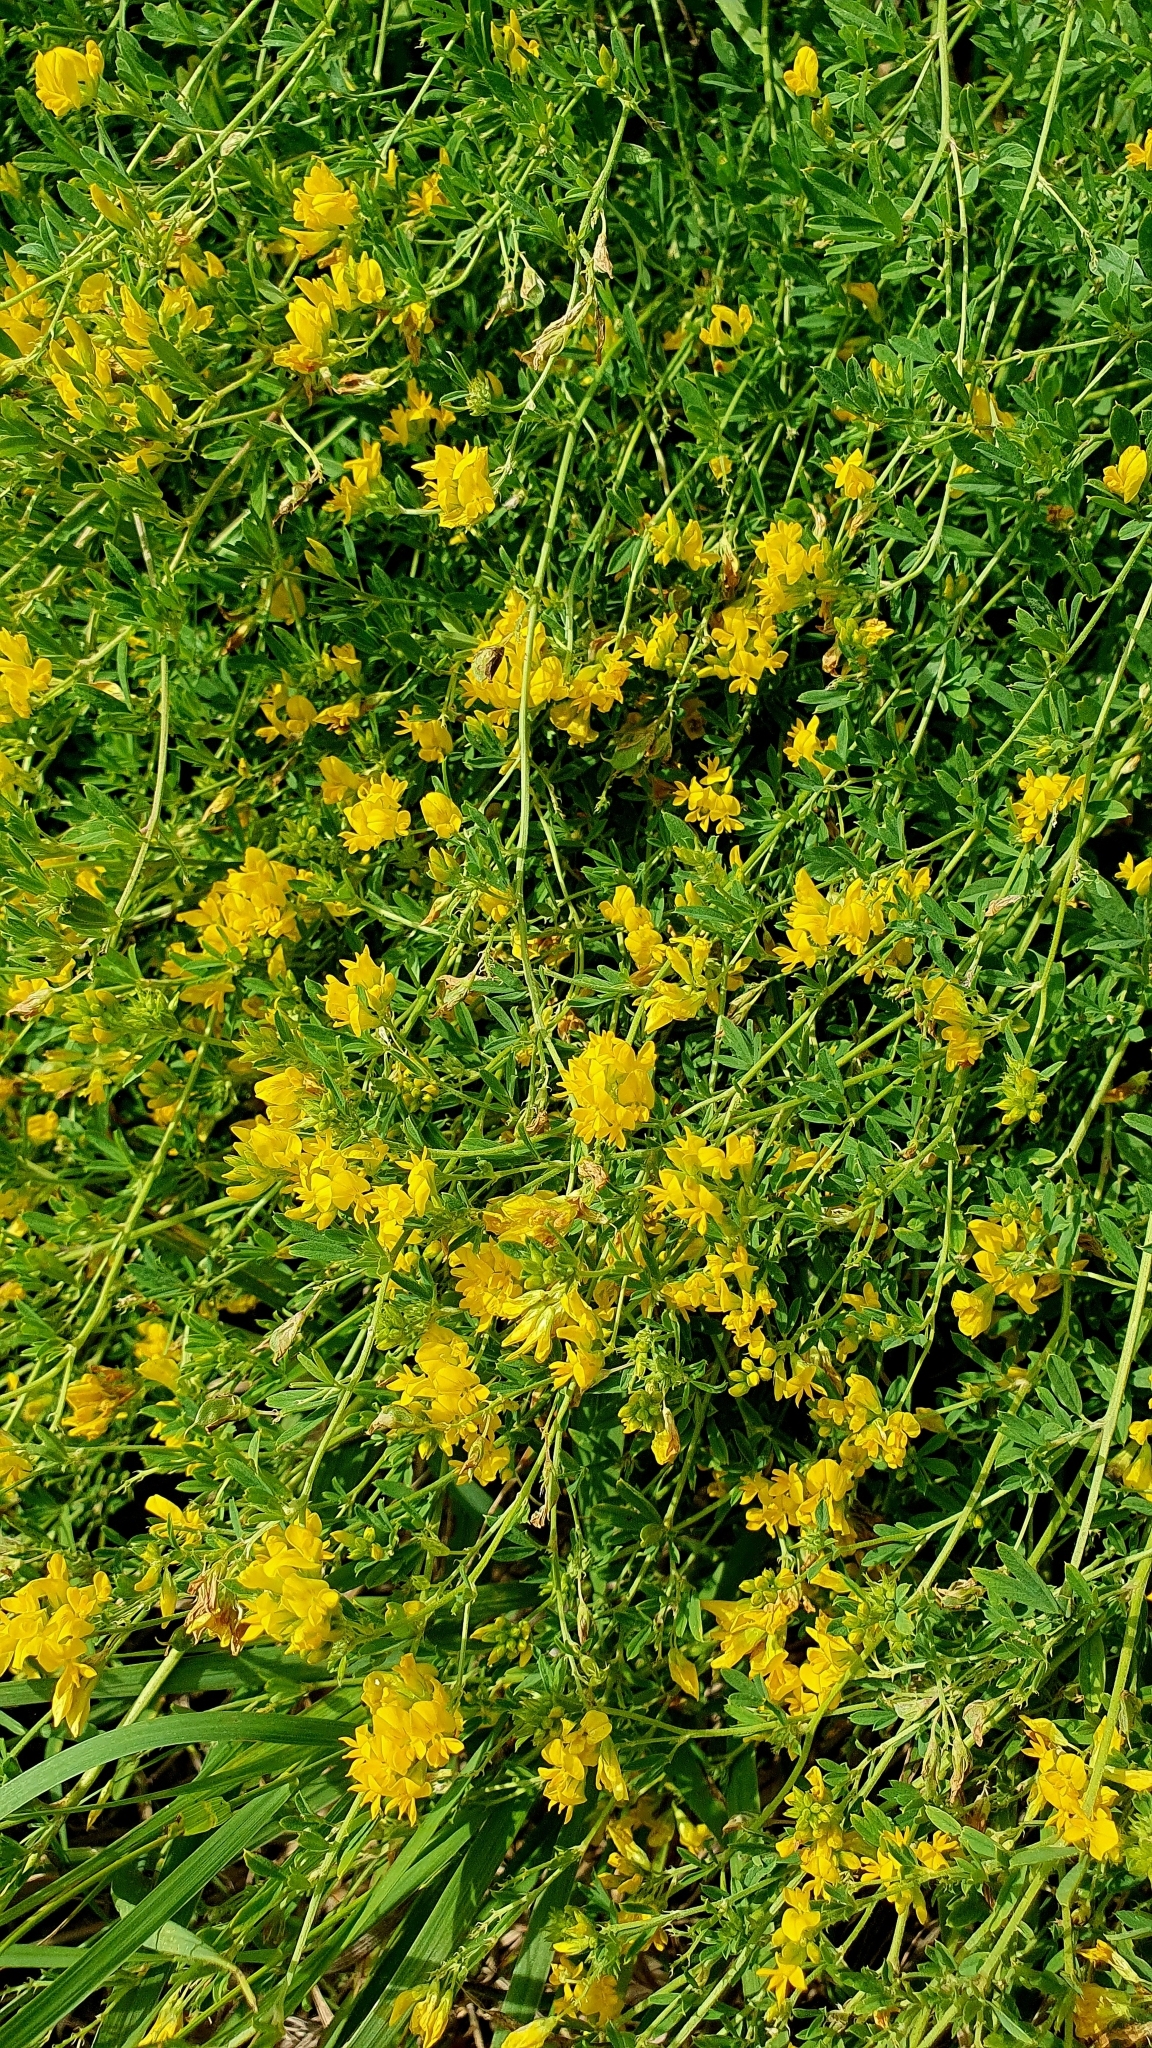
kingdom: Plantae
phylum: Tracheophyta
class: Magnoliopsida
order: Fabales
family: Fabaceae
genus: Medicago
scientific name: Medicago falcata
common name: Sickle medick
